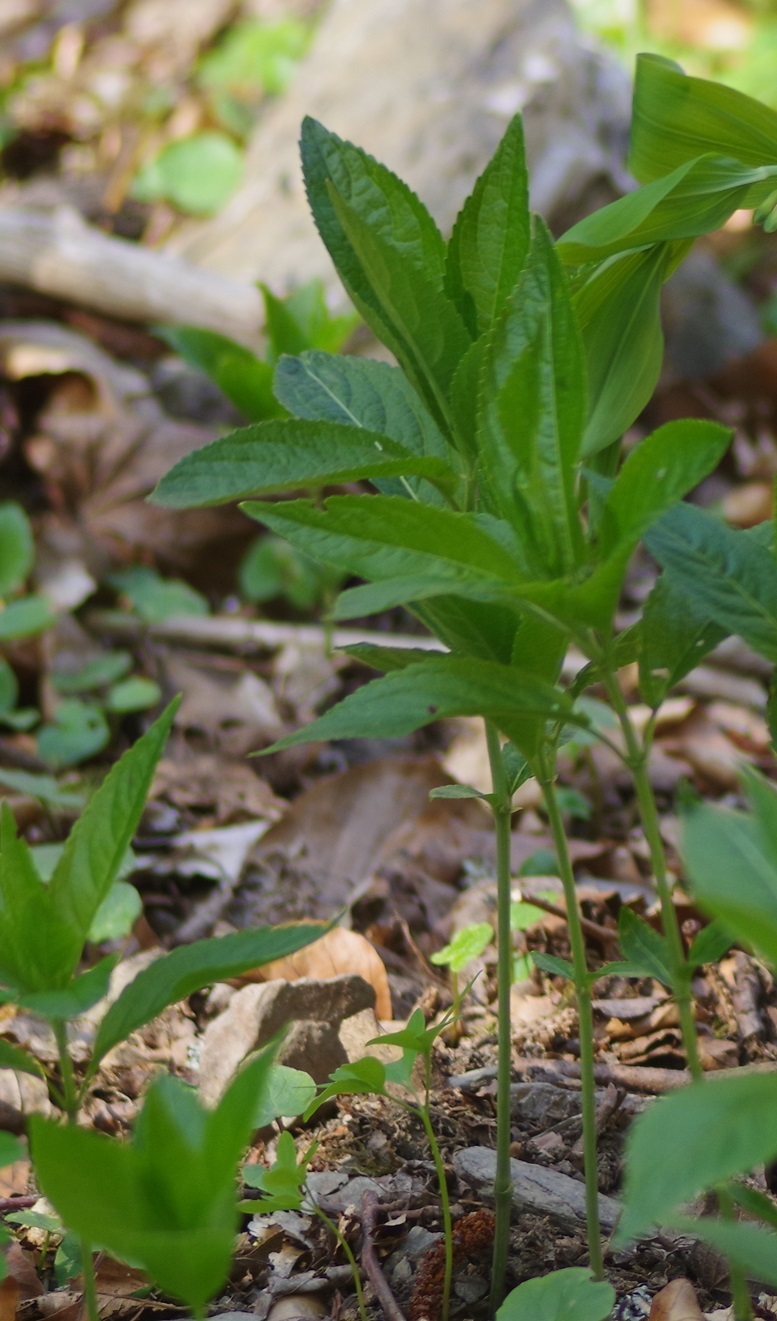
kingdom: Plantae
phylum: Tracheophyta
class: Magnoliopsida
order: Malpighiales
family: Euphorbiaceae
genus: Mercurialis
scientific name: Mercurialis perennis
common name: Dog mercury
